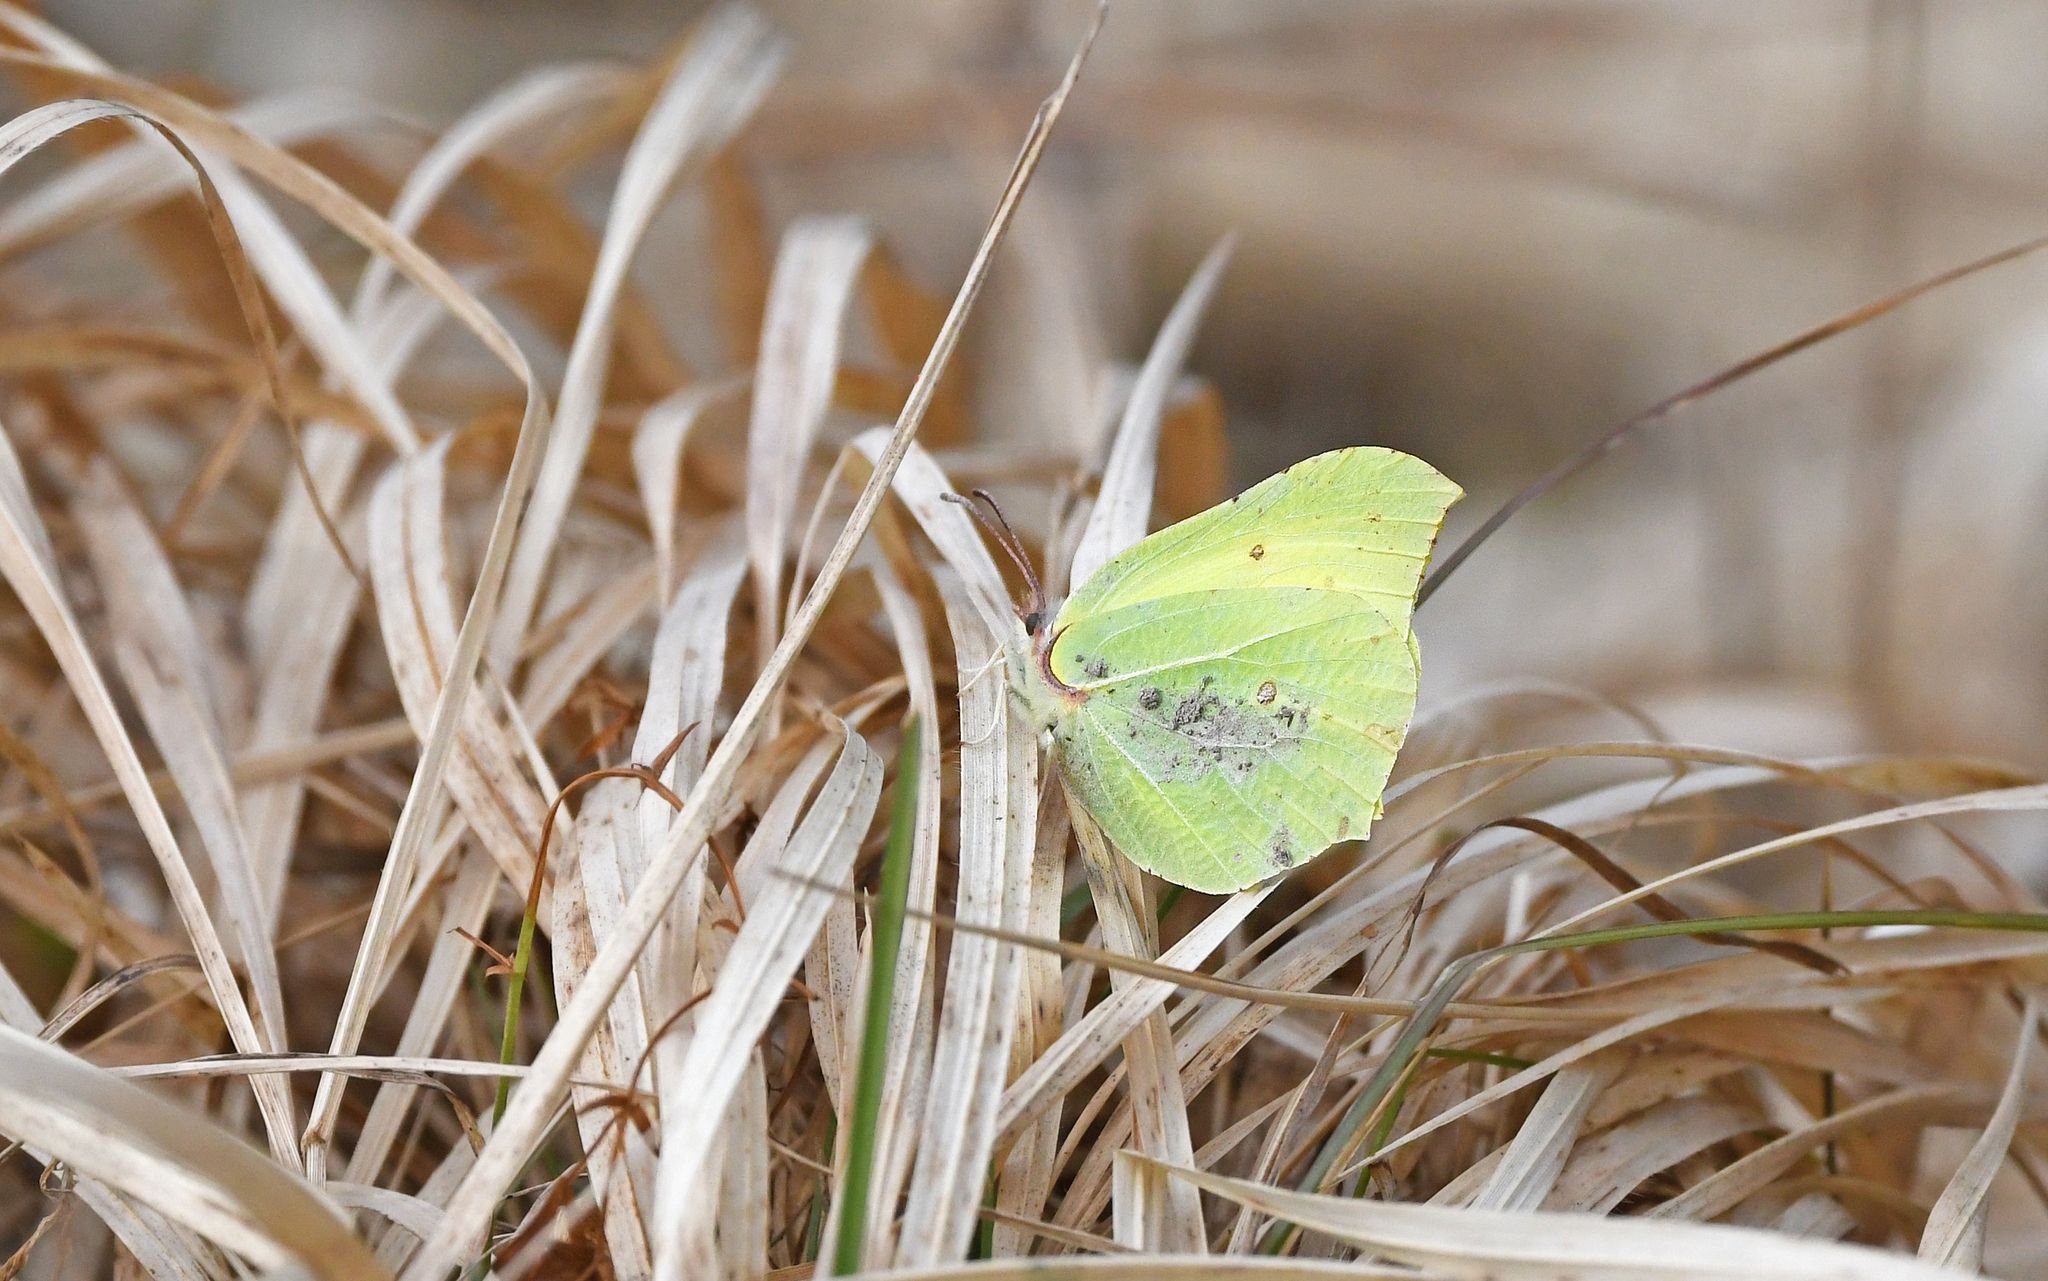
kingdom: Animalia
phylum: Arthropoda
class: Insecta
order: Lepidoptera
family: Pieridae
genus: Gonepteryx
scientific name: Gonepteryx rhamni
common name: Brimstone
